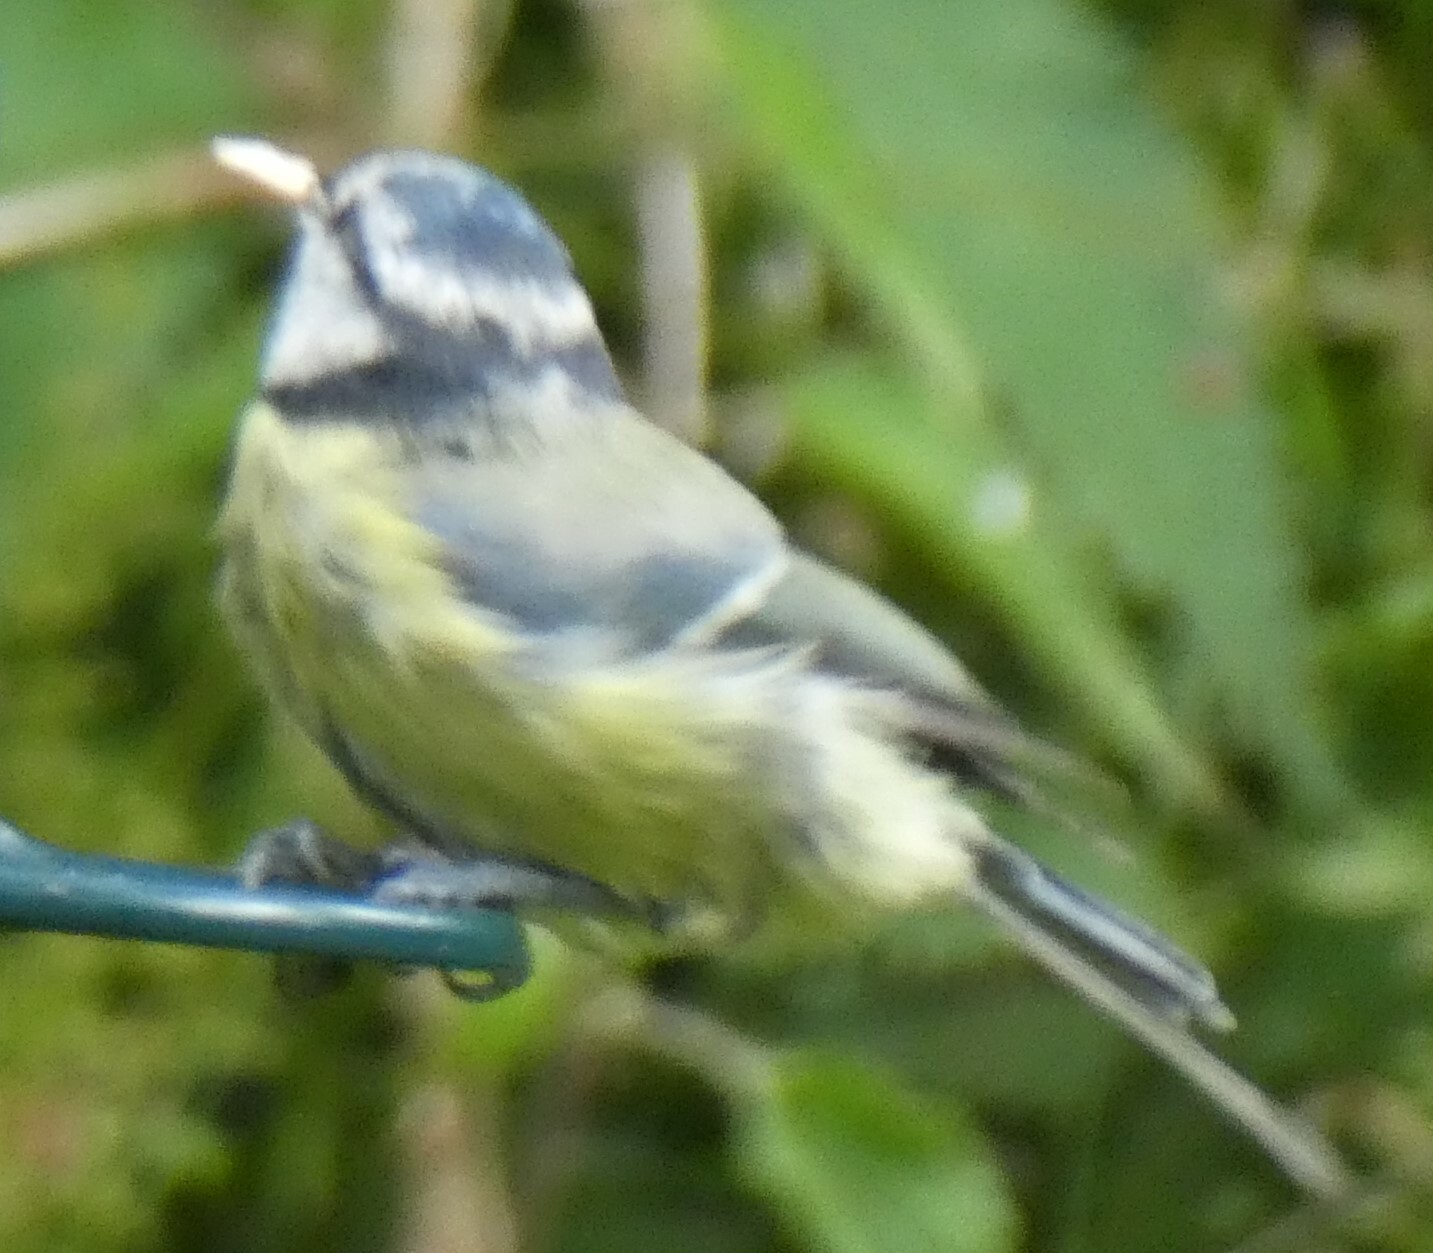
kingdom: Animalia
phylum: Chordata
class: Aves
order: Passeriformes
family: Paridae
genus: Cyanistes
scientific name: Cyanistes caeruleus
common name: Eurasian blue tit
